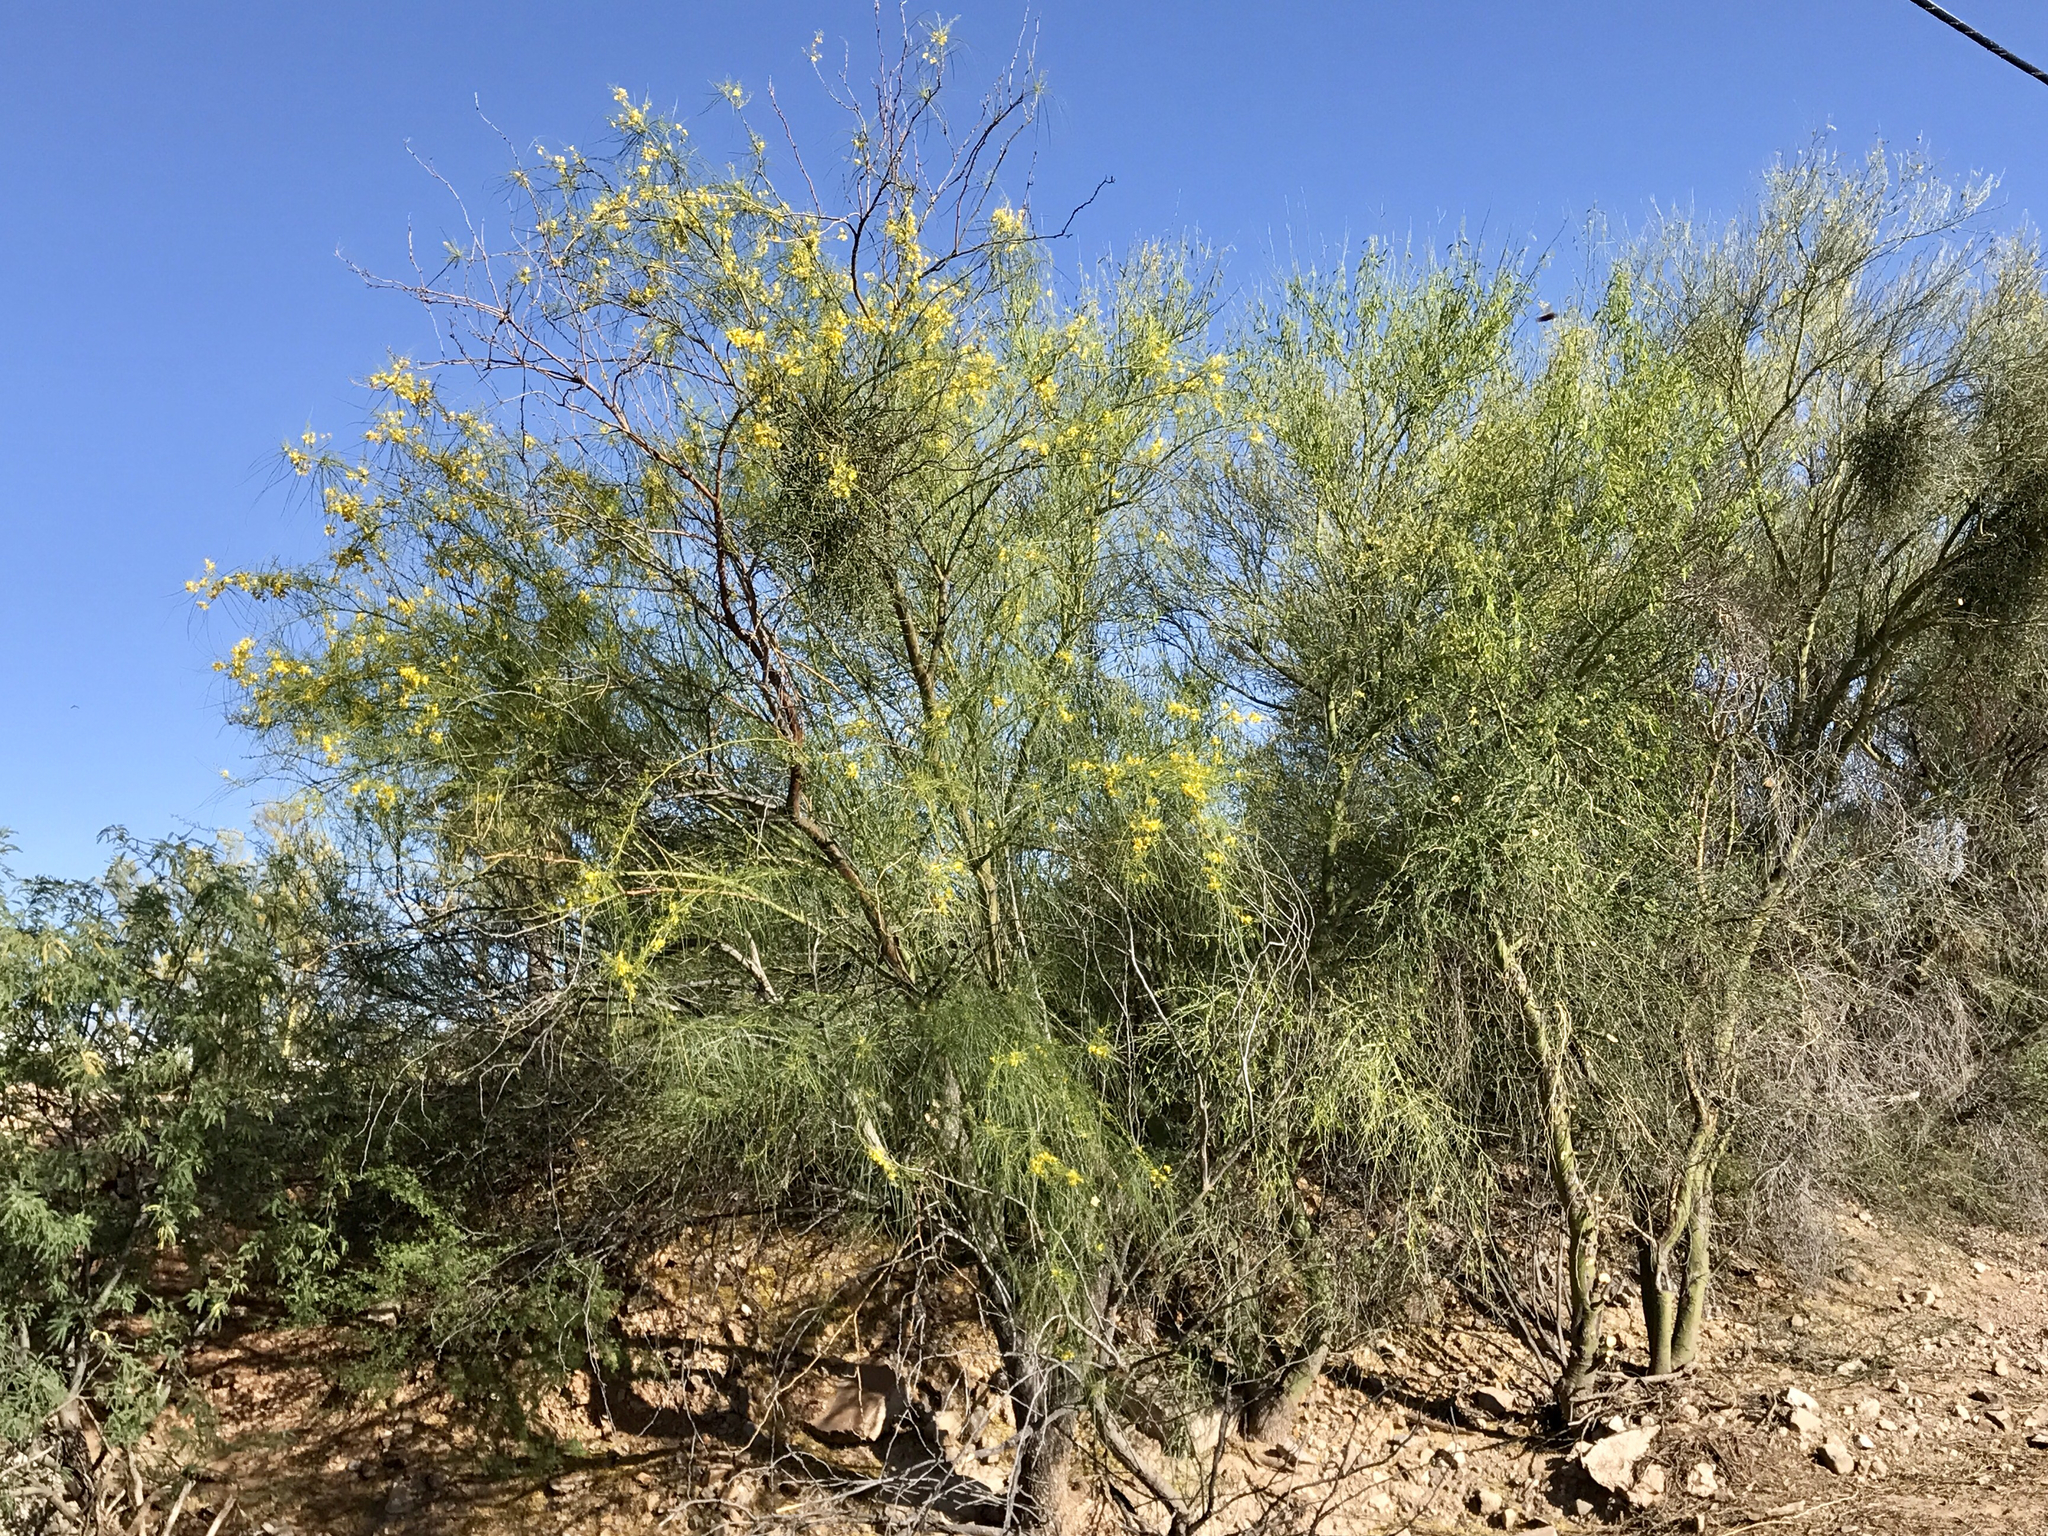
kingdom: Plantae
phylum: Tracheophyta
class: Magnoliopsida
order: Fabales
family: Fabaceae
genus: Parkinsonia
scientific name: Parkinsonia aculeata
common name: Jerusalem thorn
